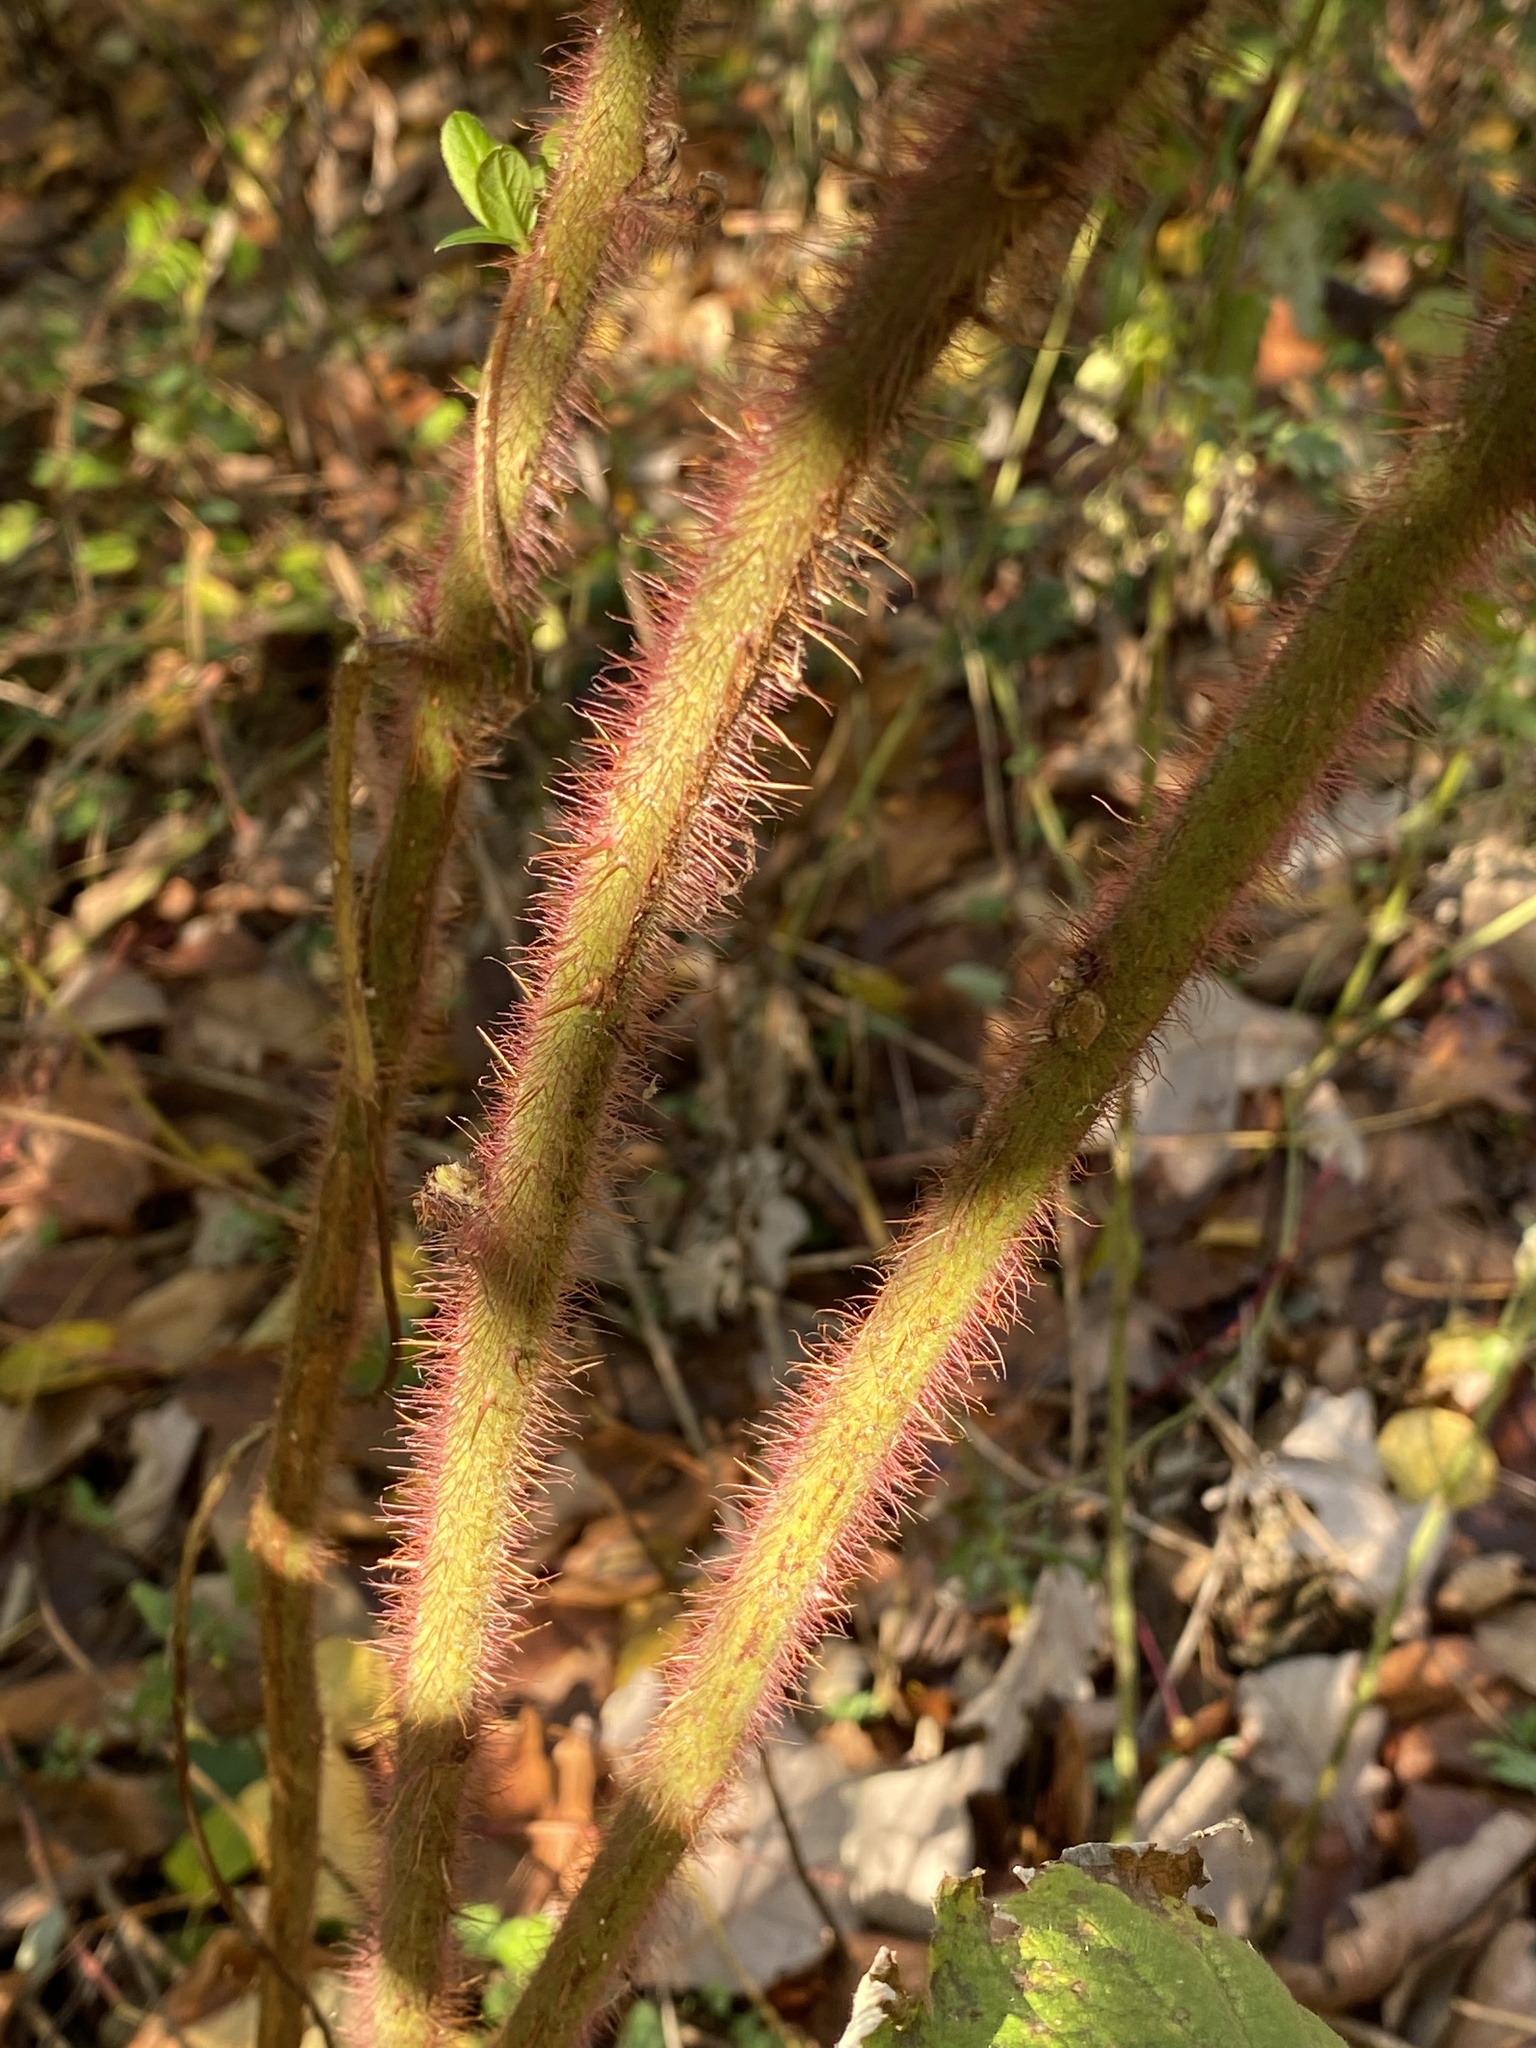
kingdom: Plantae
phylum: Tracheophyta
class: Magnoliopsida
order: Rosales
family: Rosaceae
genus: Rubus
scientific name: Rubus phoenicolasius
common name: Japanese wineberry
